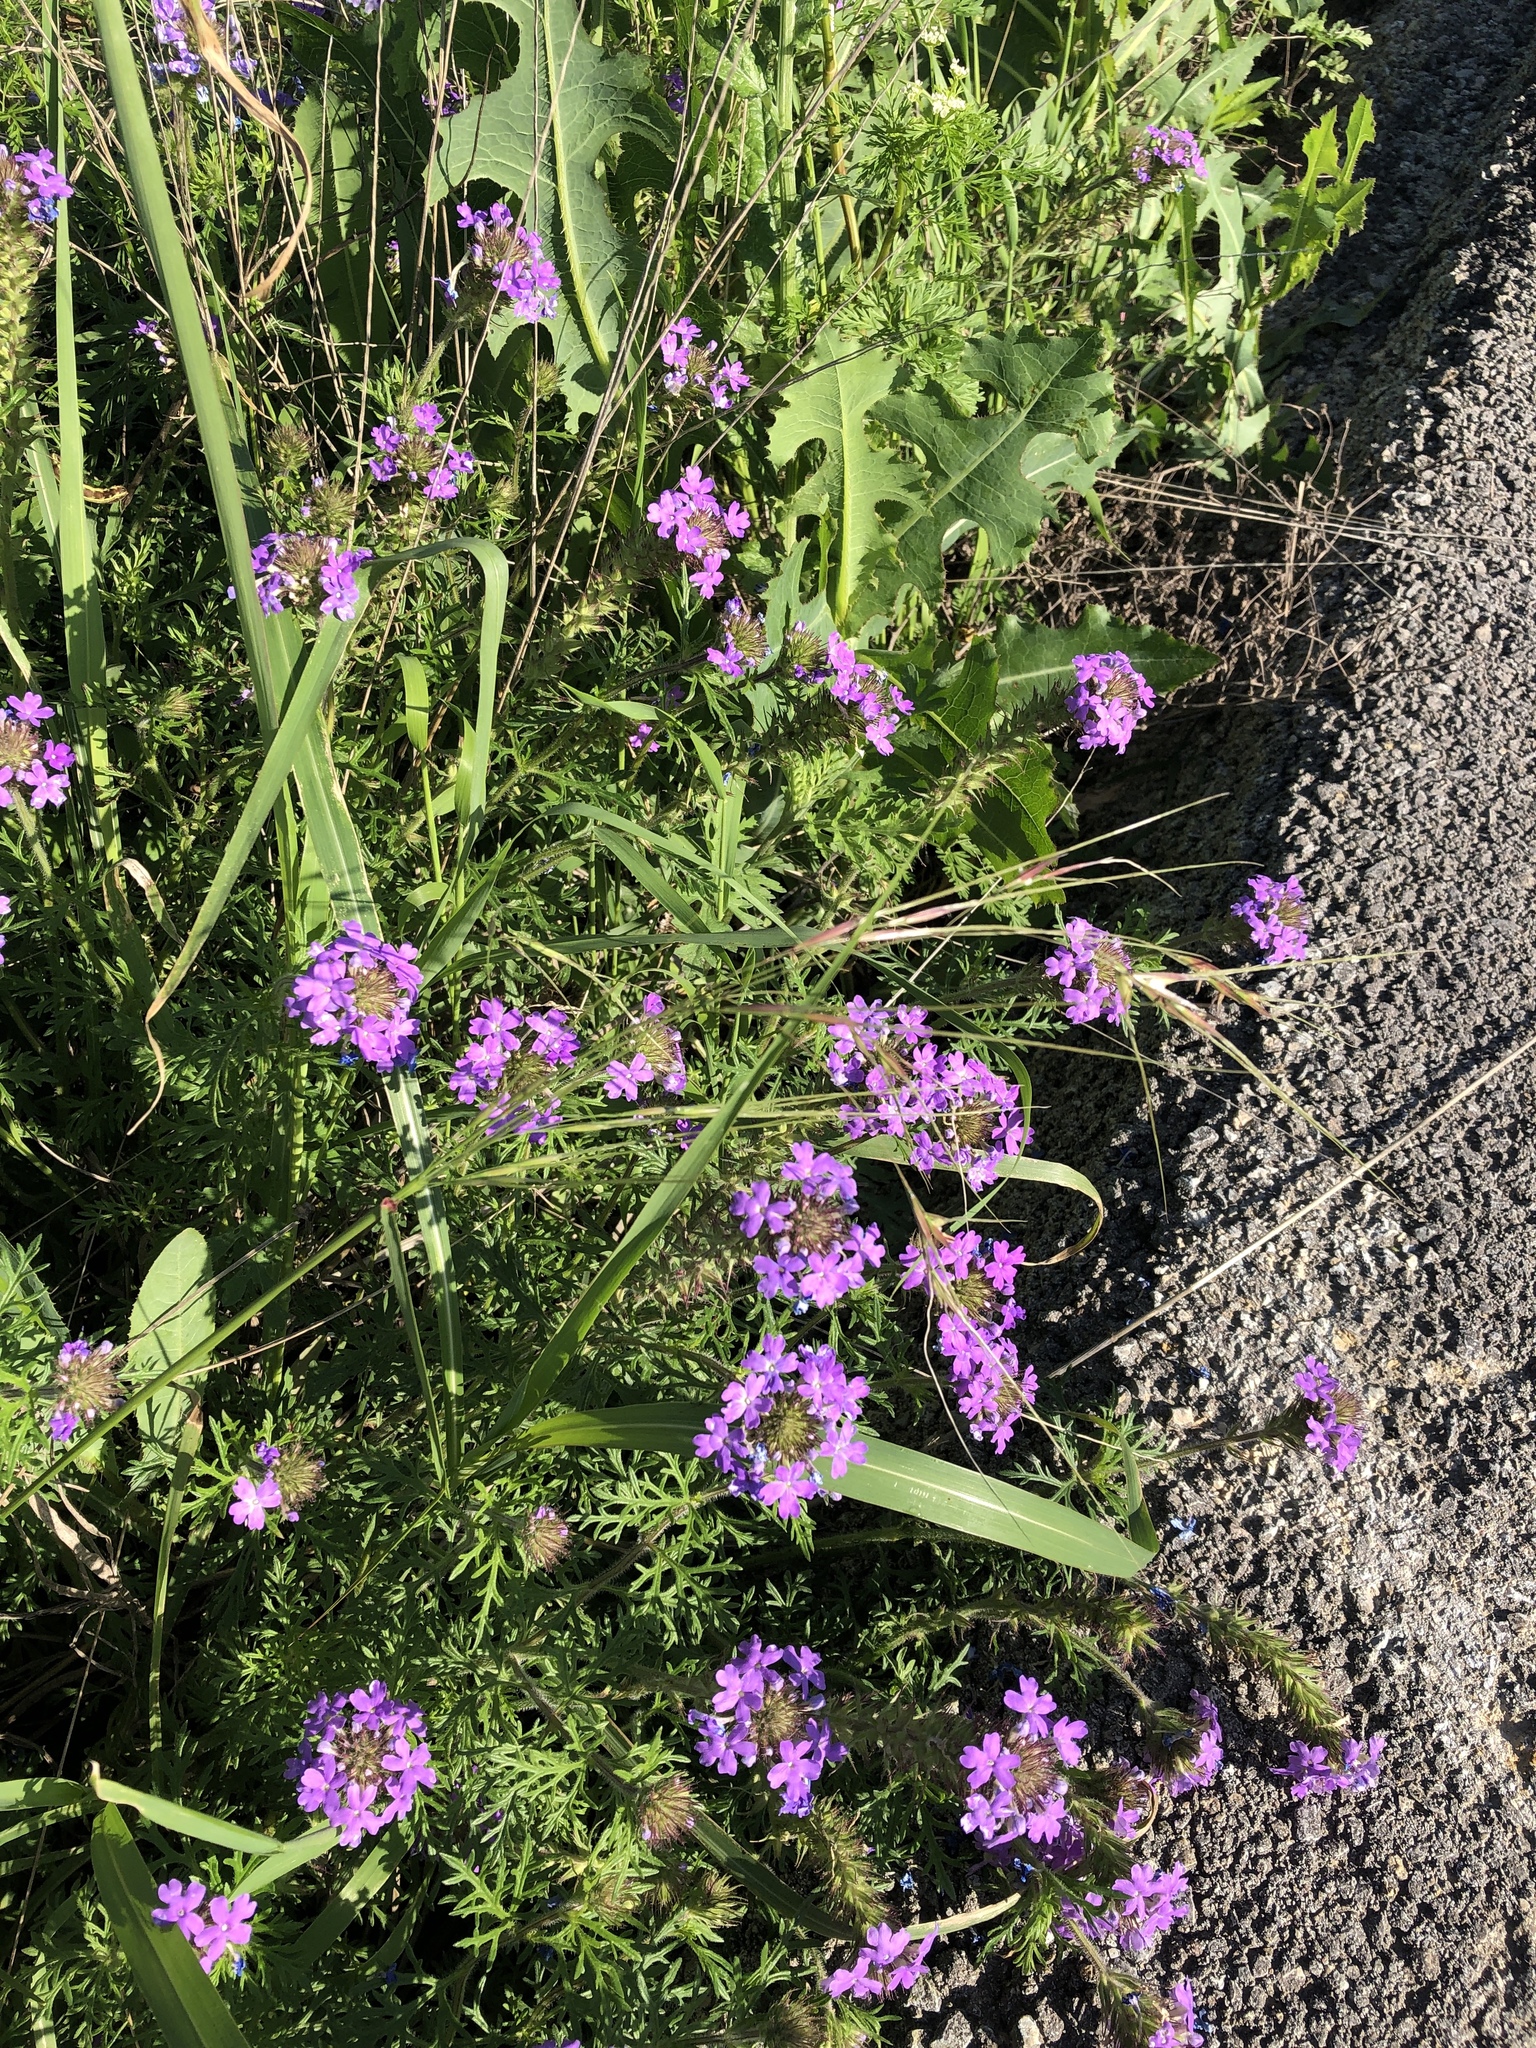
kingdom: Plantae
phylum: Tracheophyta
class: Liliopsida
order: Poales
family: Poaceae
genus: Nassella
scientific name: Nassella leucotricha
